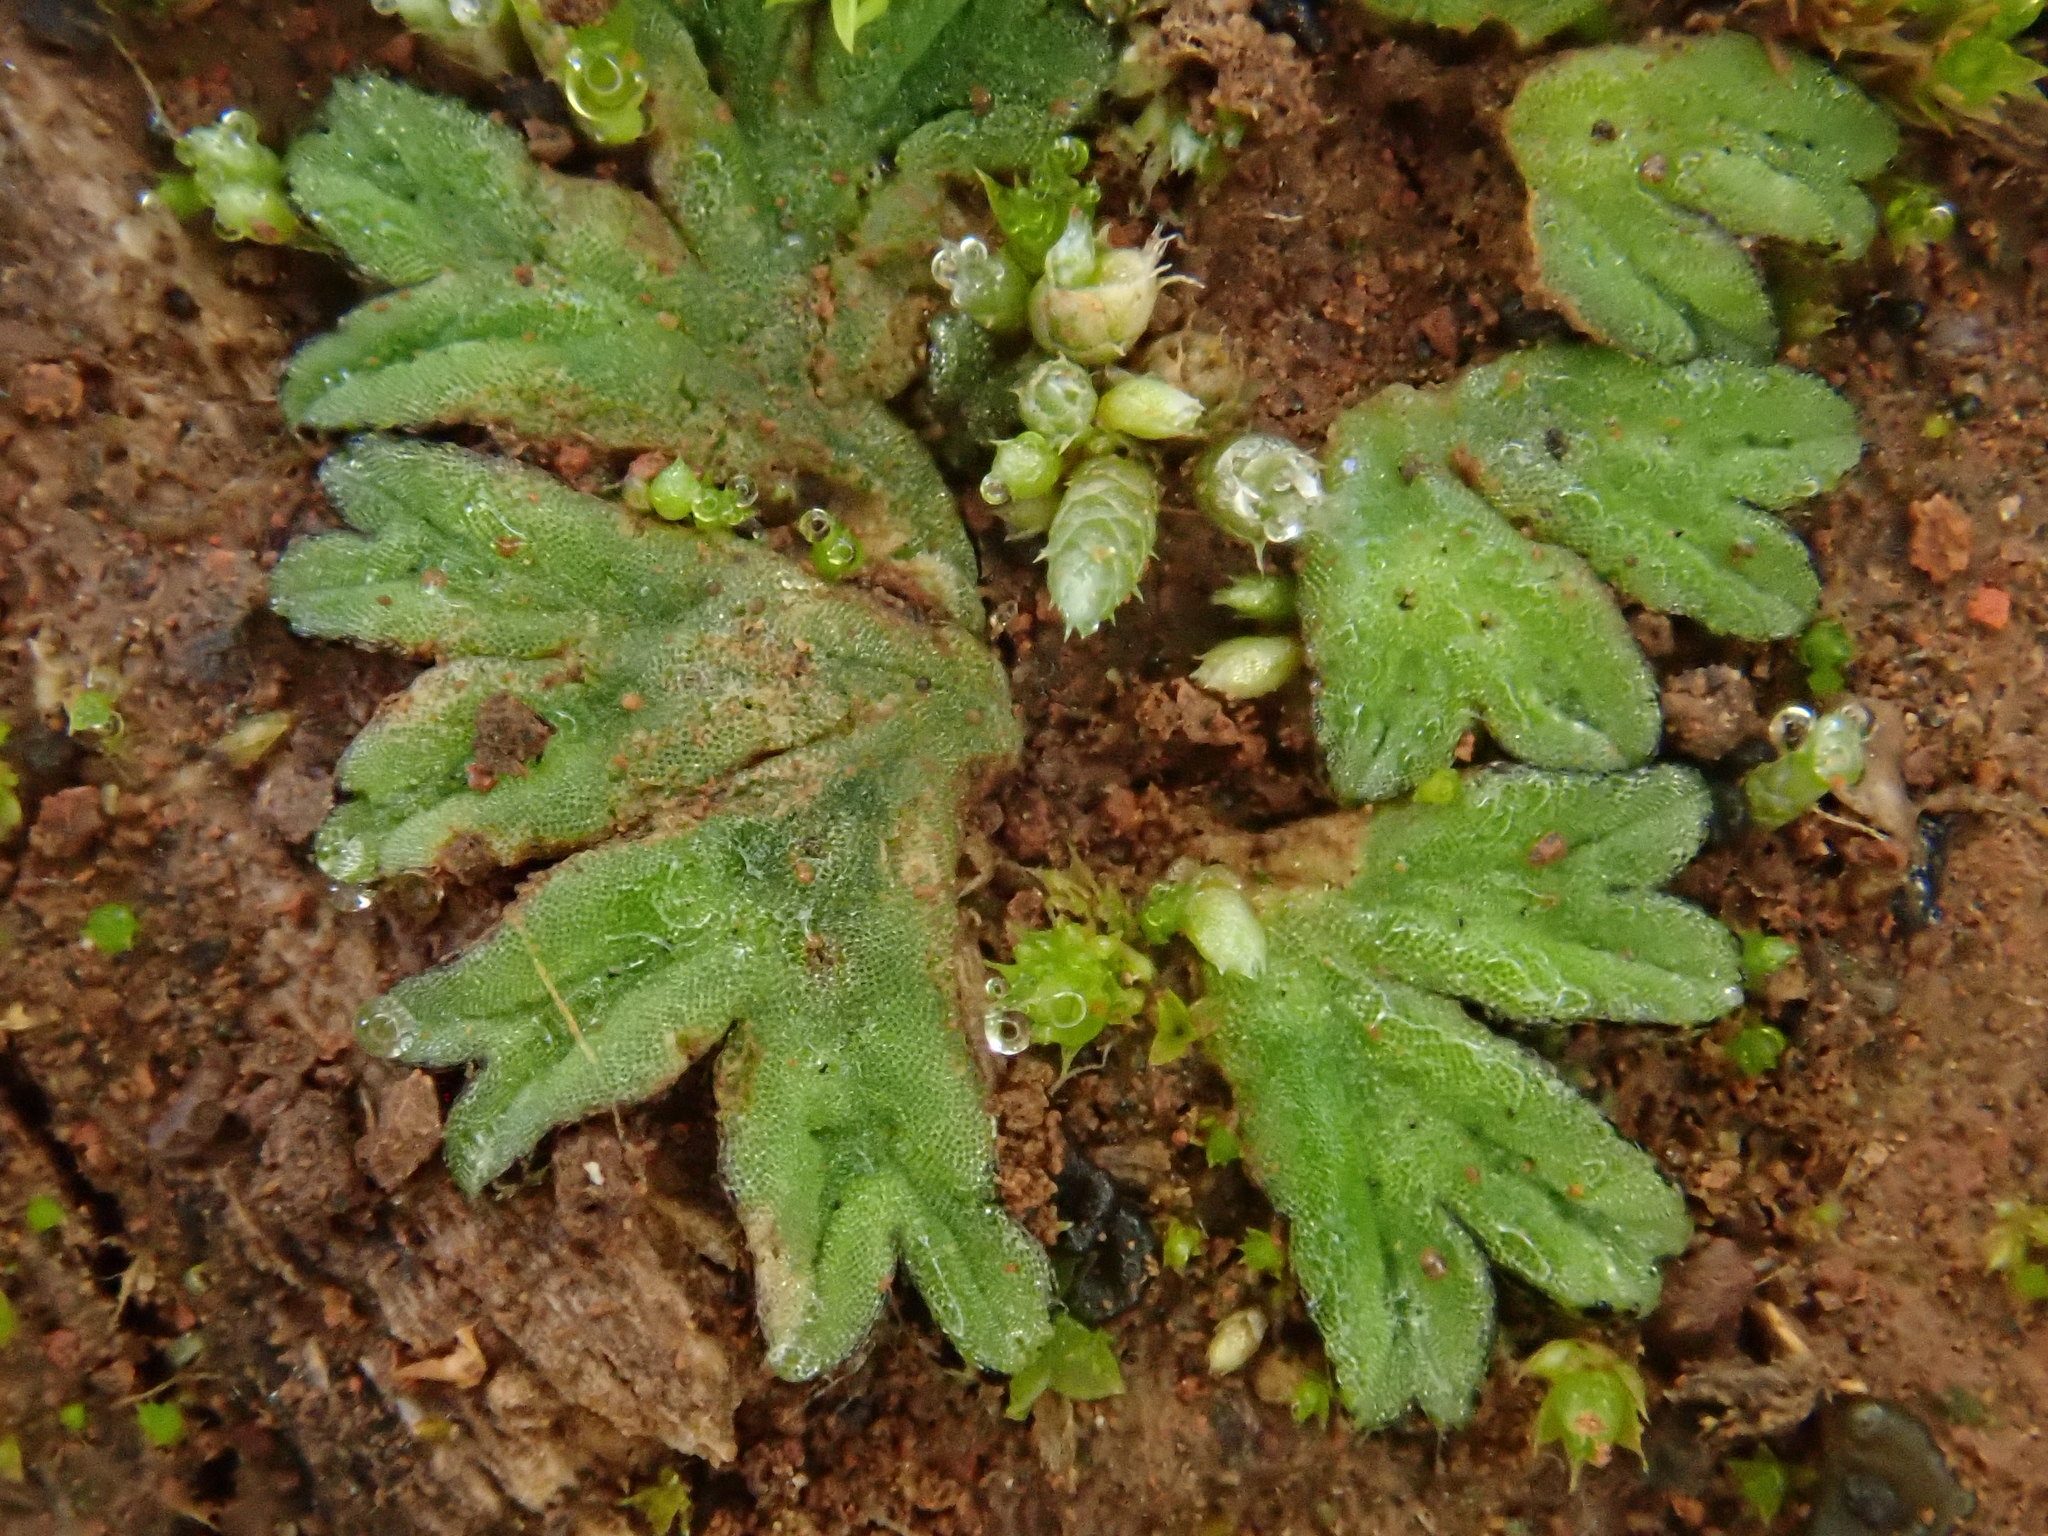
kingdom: Plantae
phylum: Marchantiophyta
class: Marchantiopsida
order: Marchantiales
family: Ricciaceae
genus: Riccia
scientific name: Riccia nigrella
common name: Black crystalwort
